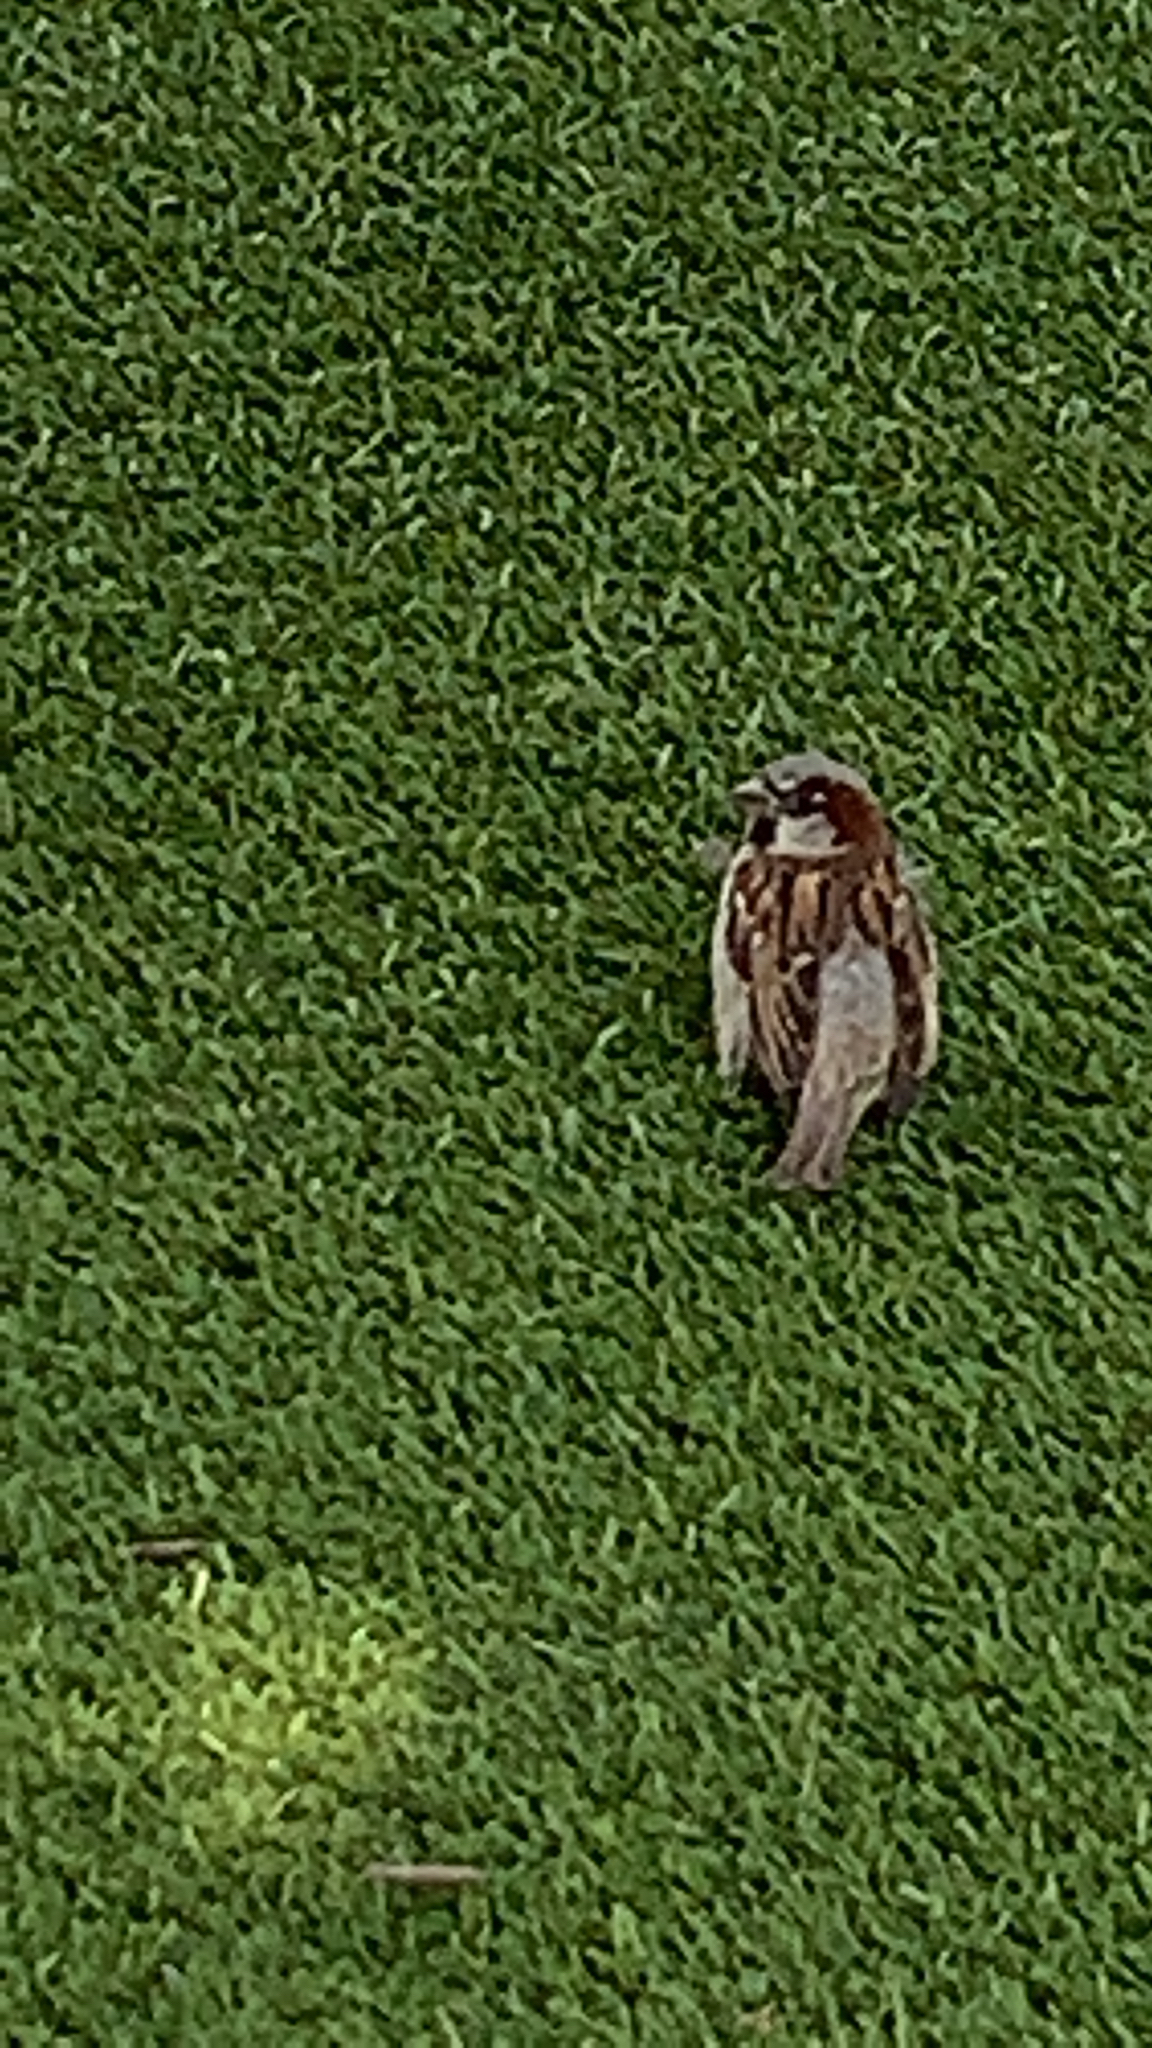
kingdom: Animalia
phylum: Chordata
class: Aves
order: Passeriformes
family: Passeridae
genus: Passer
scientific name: Passer domesticus
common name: House sparrow
